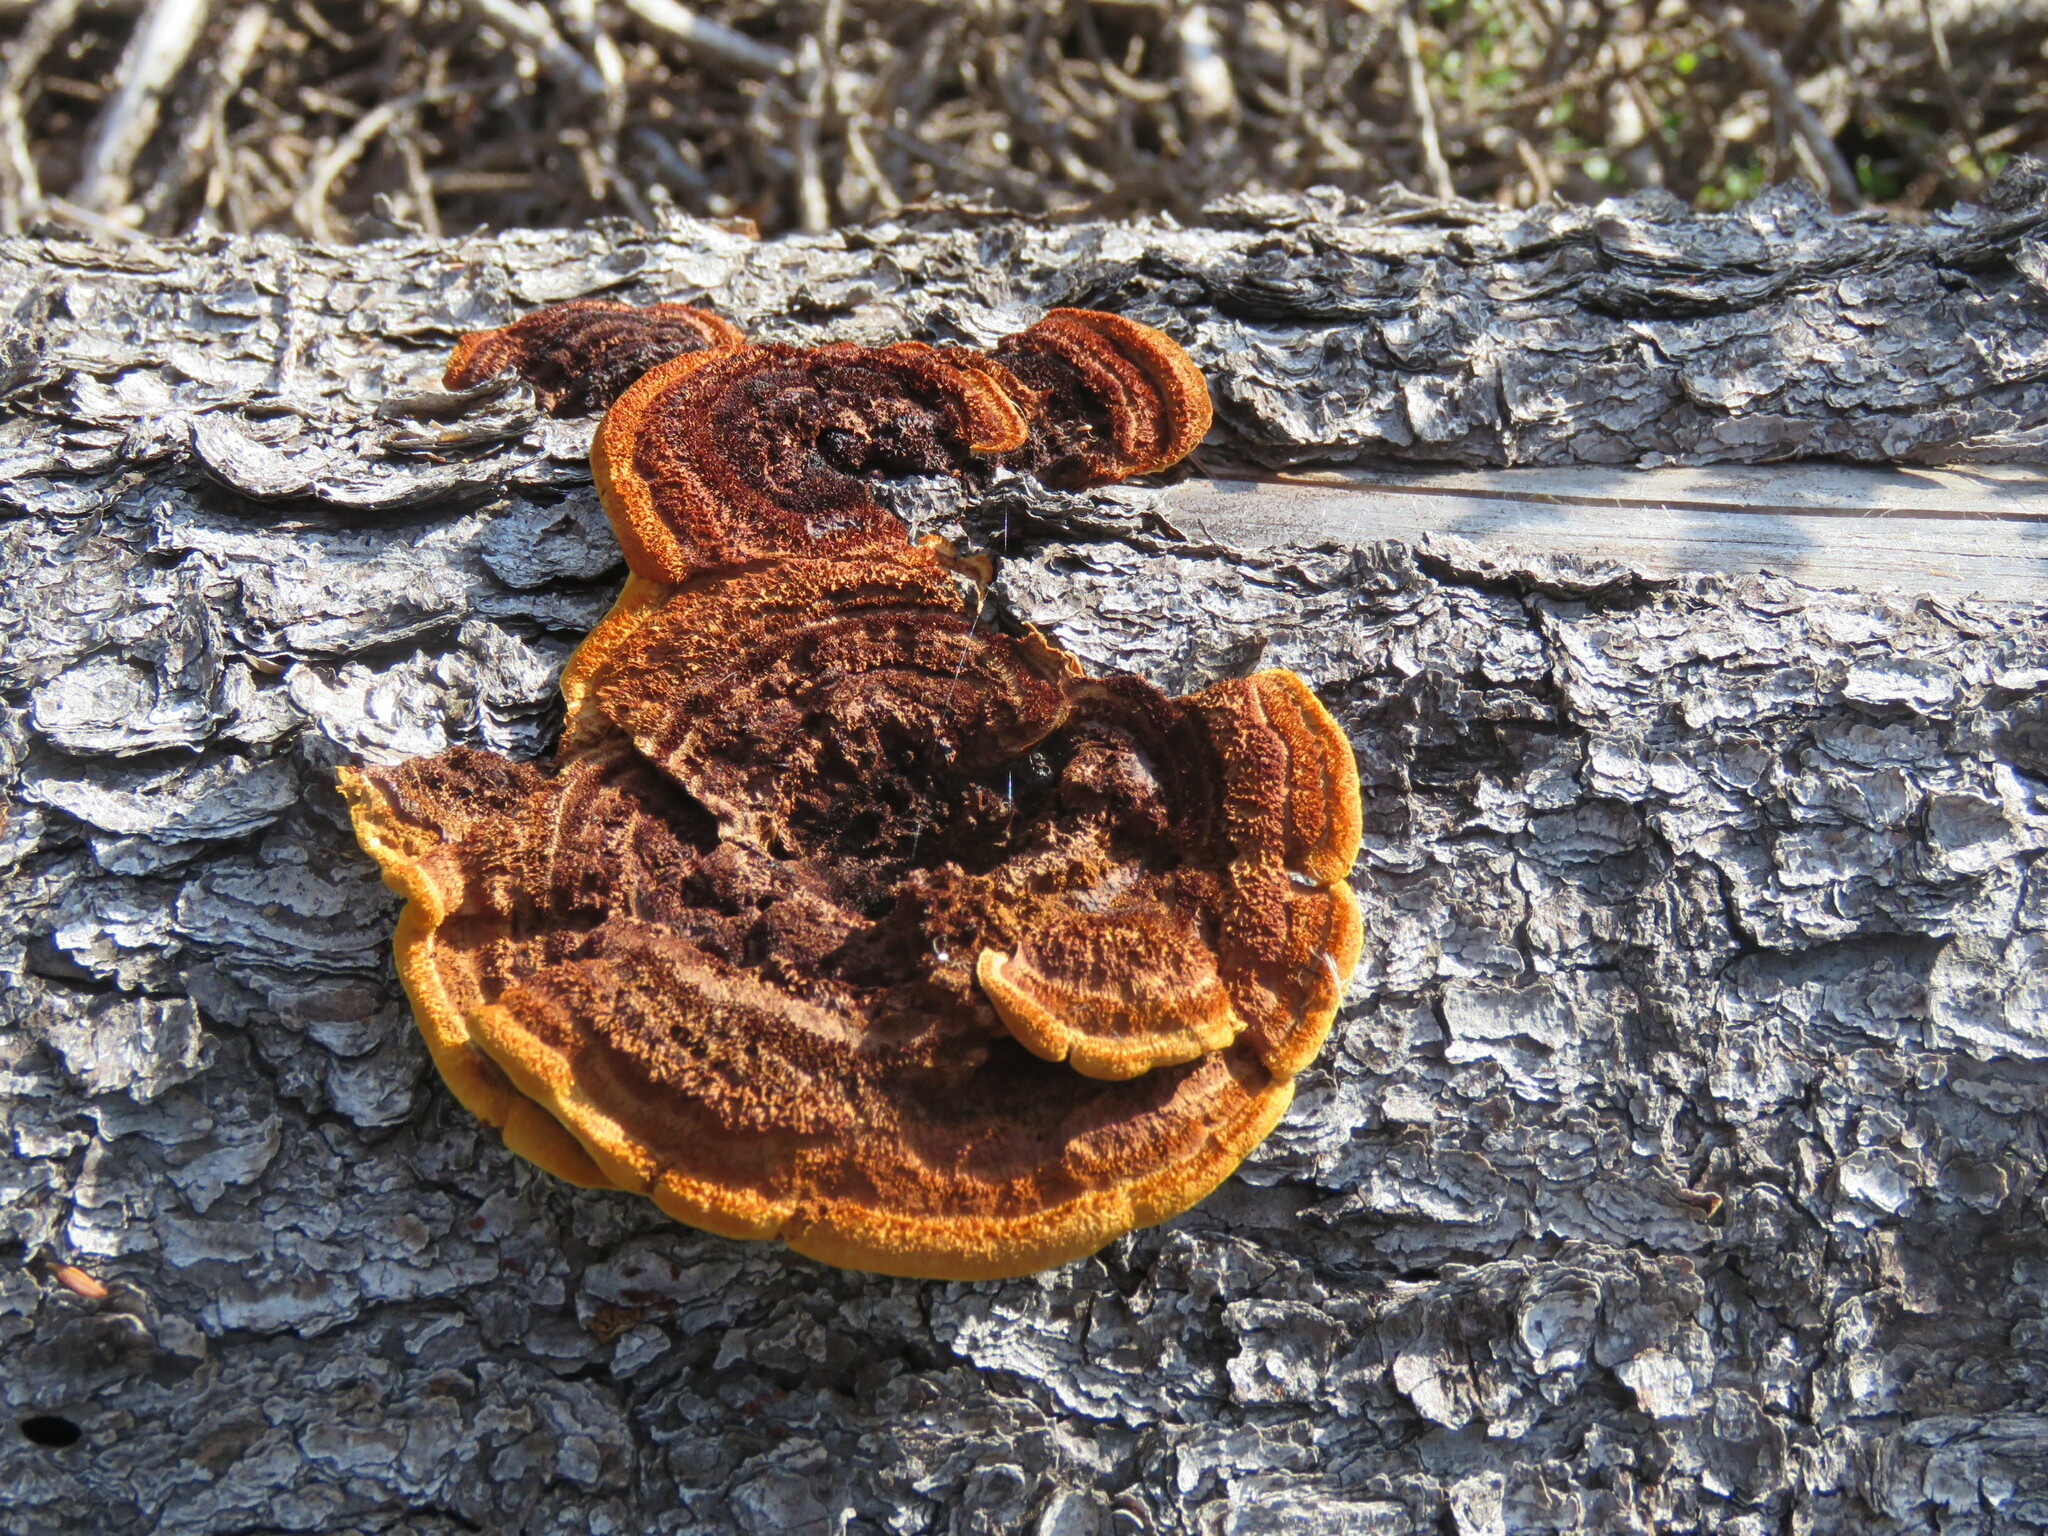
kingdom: Fungi
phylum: Basidiomycota
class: Agaricomycetes
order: Gloeophyllales
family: Gloeophyllaceae
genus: Gloeophyllum
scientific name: Gloeophyllum sepiarium
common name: Conifer mazegill
